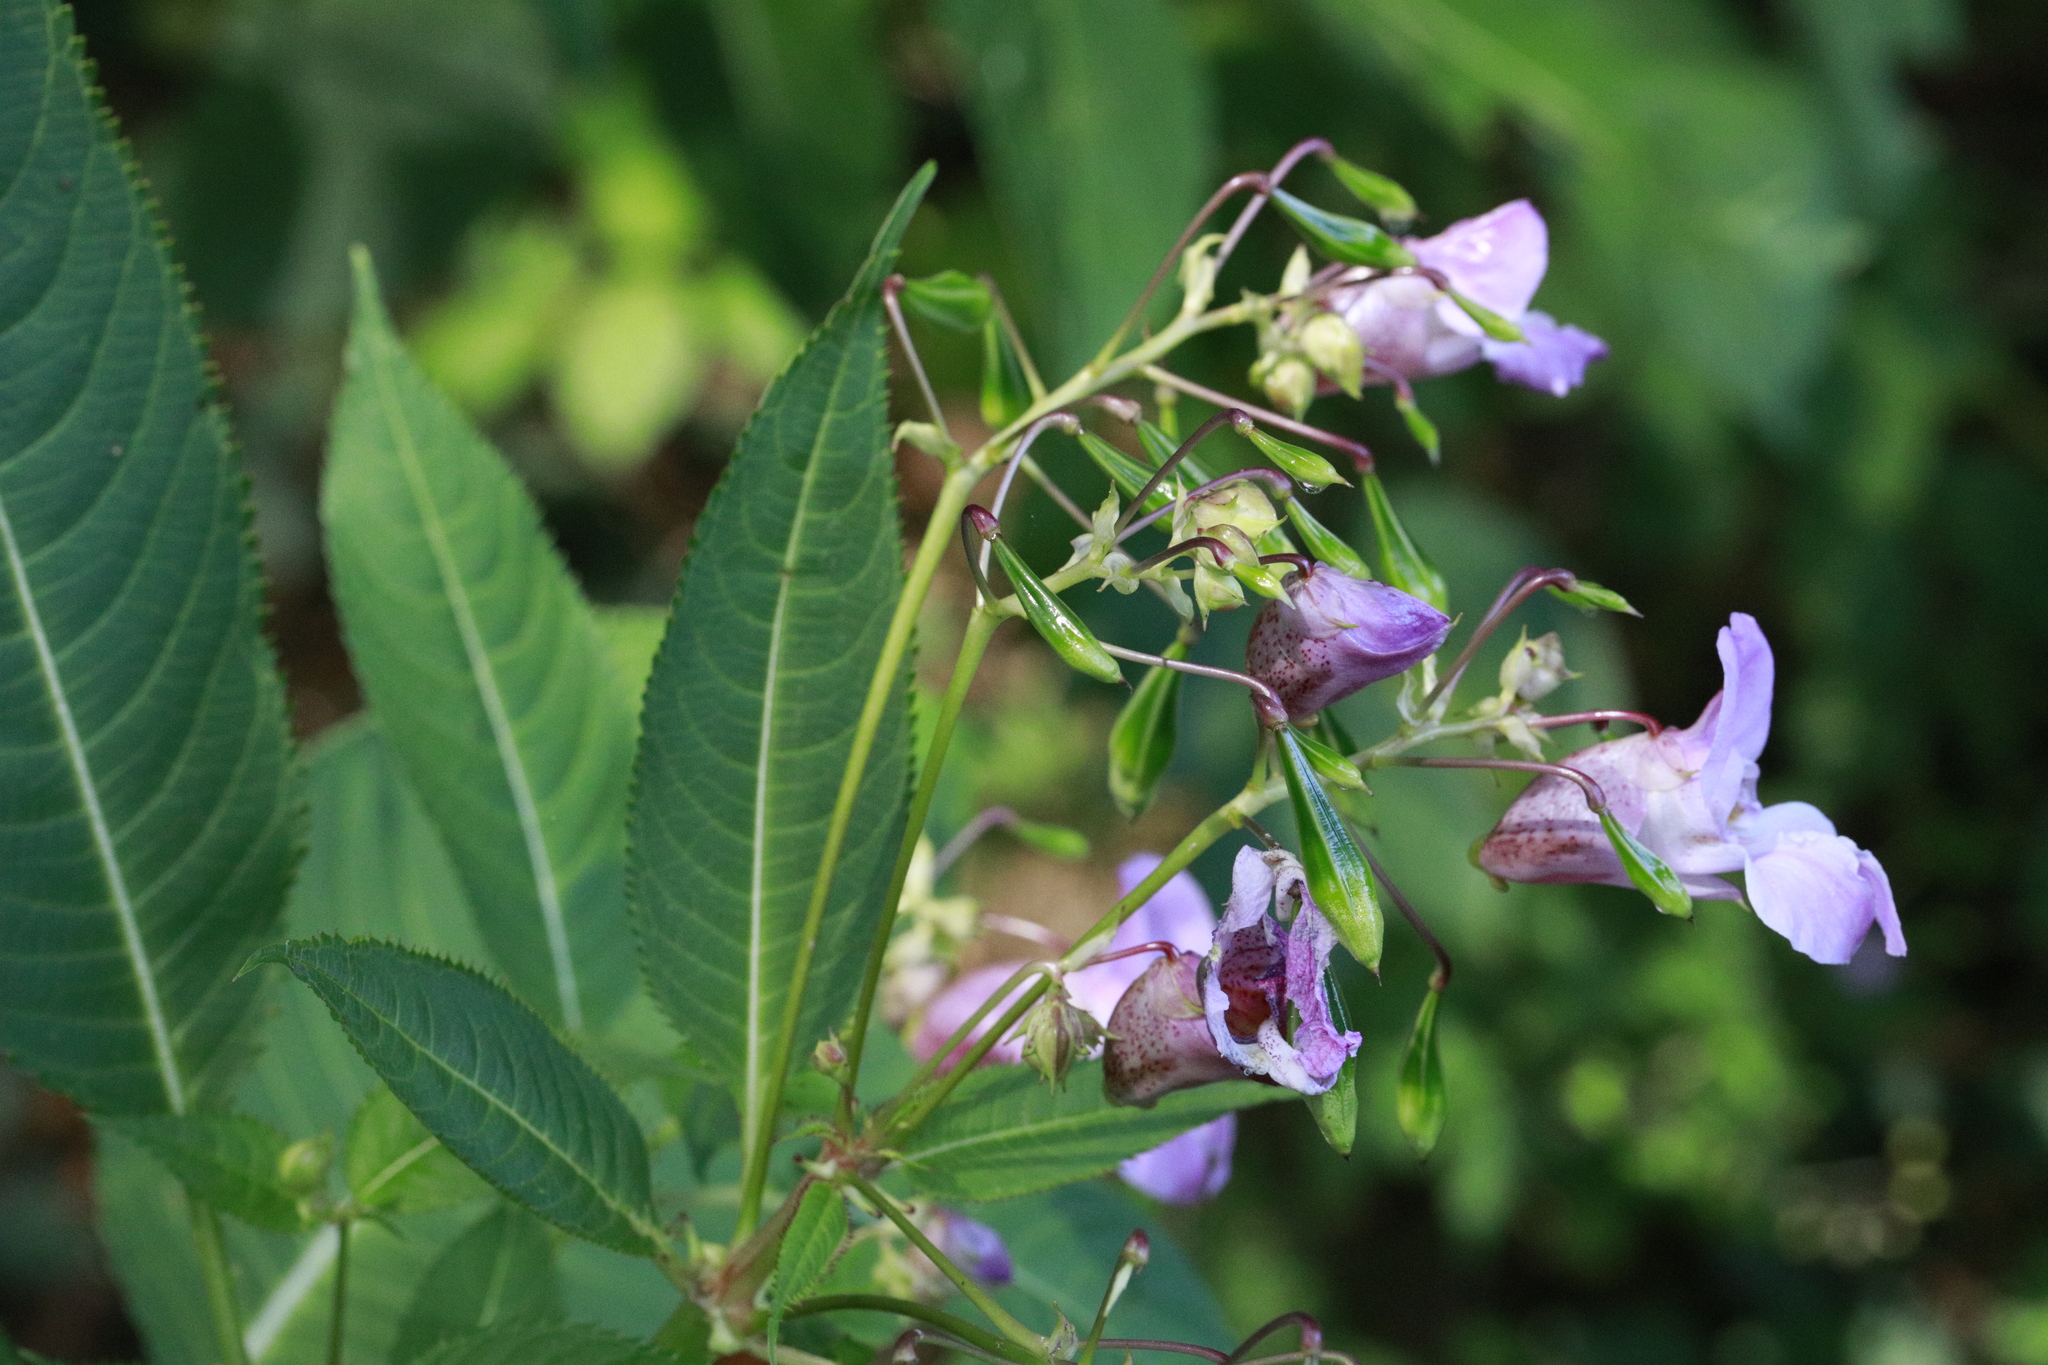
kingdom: Plantae
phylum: Tracheophyta
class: Magnoliopsida
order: Ericales
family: Balsaminaceae
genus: Impatiens
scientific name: Impatiens glandulifera
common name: Himalayan balsam
